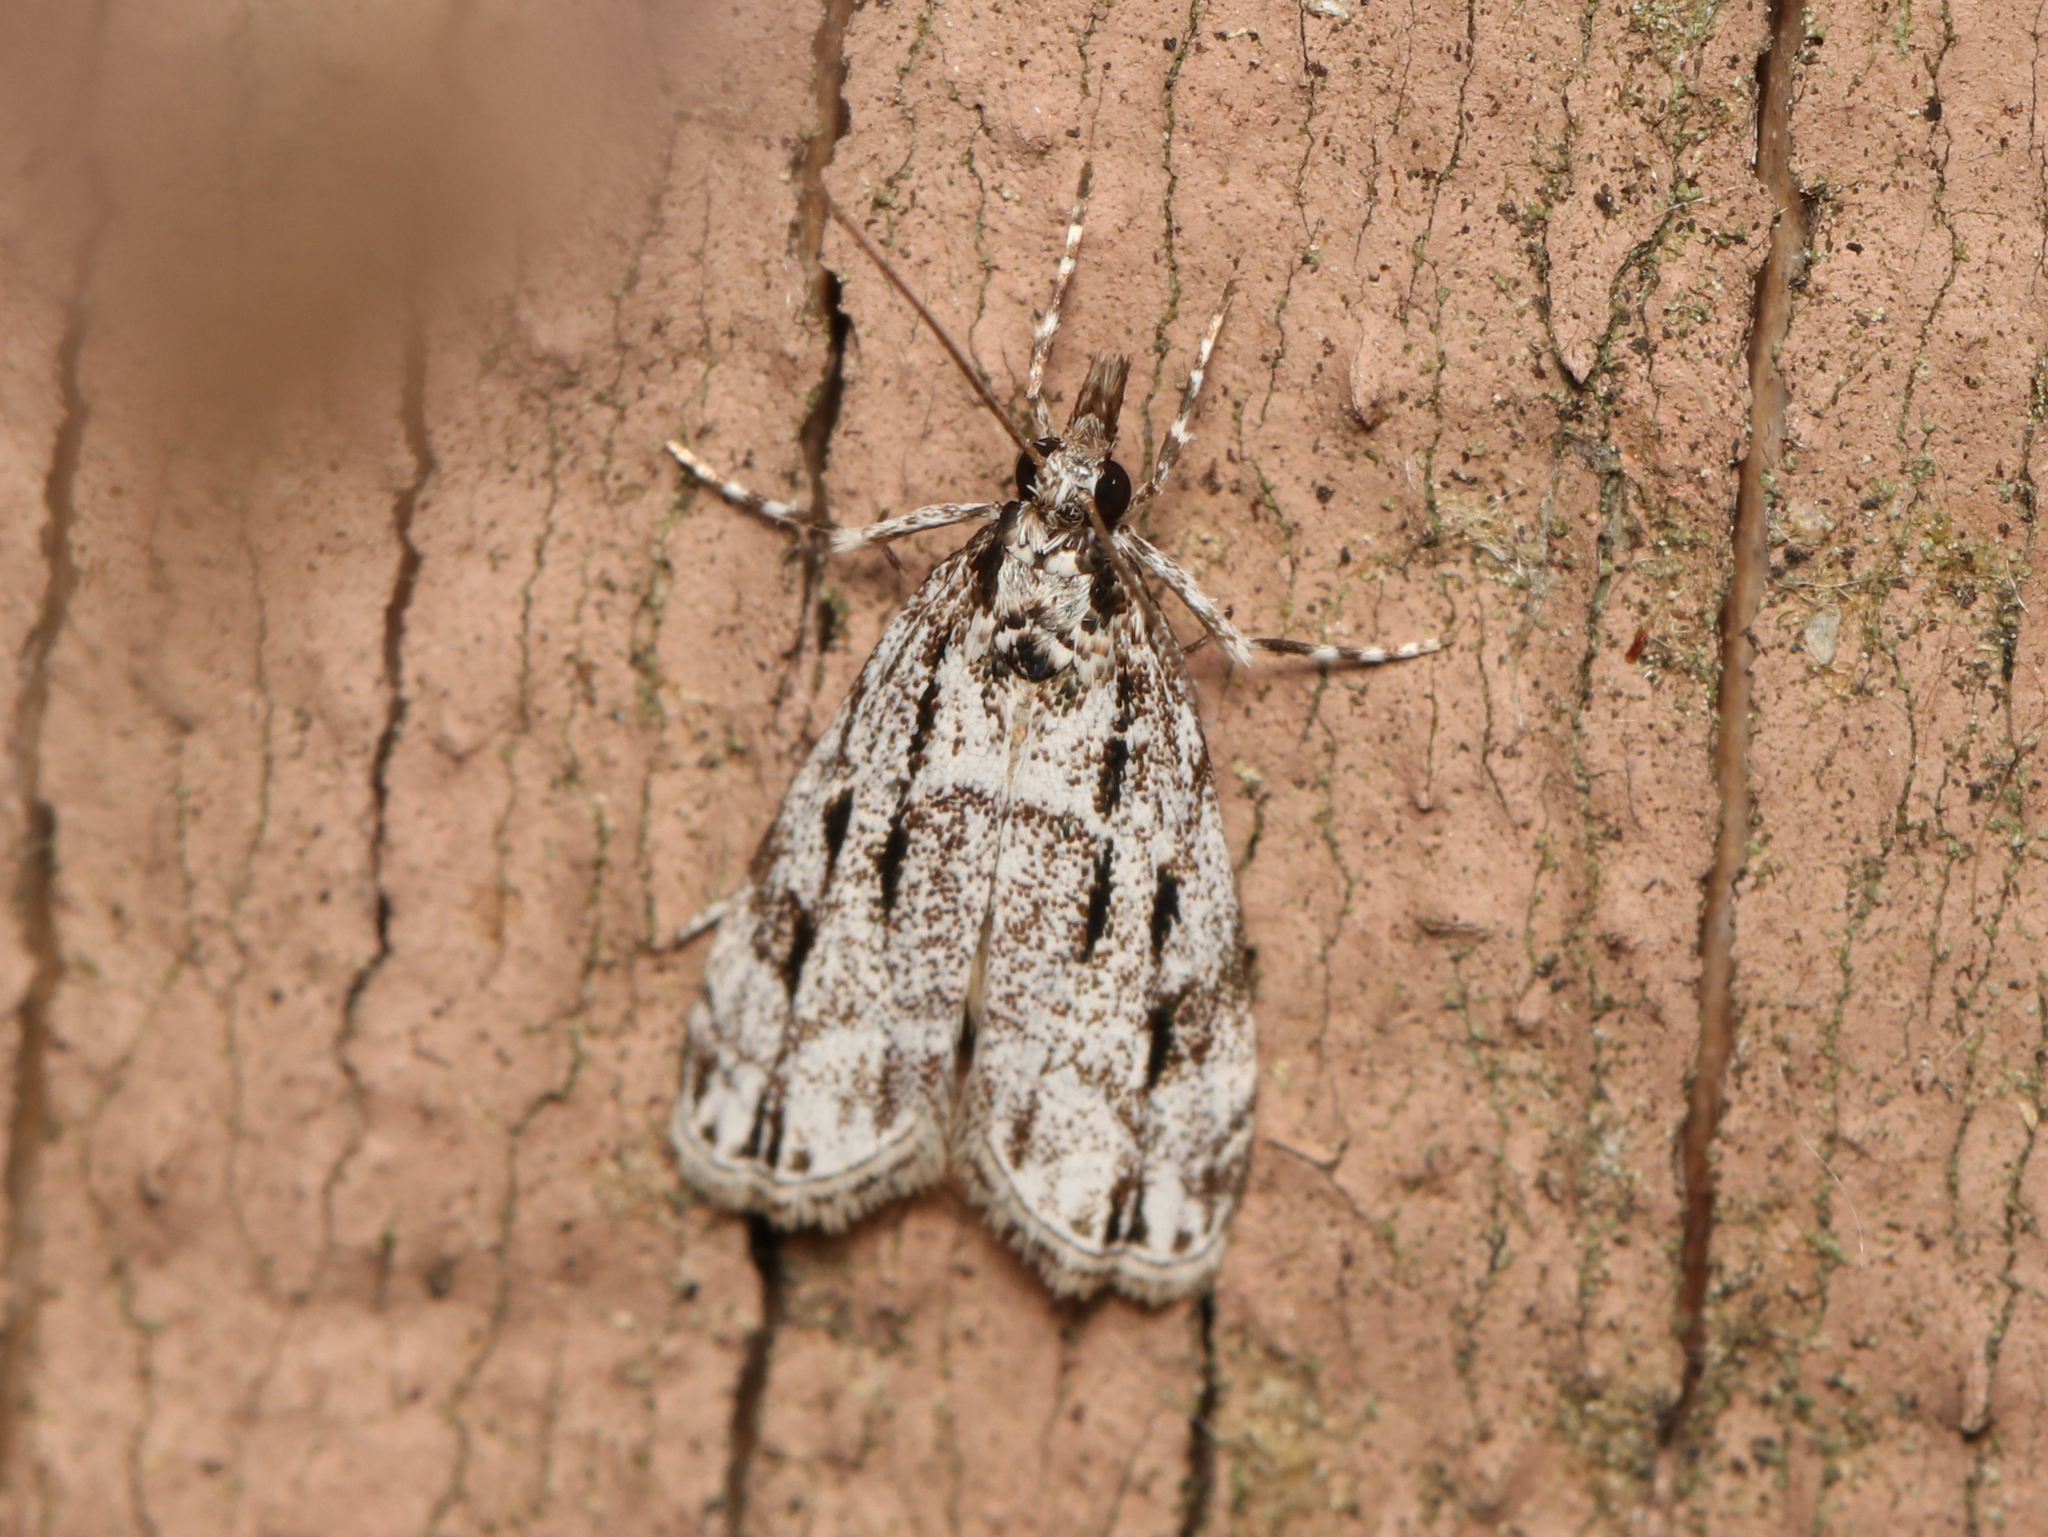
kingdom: Animalia
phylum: Arthropoda
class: Insecta
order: Lepidoptera
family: Crambidae
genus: Eudonia
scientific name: Eudonia strigalis
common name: Striped eudonia moth
